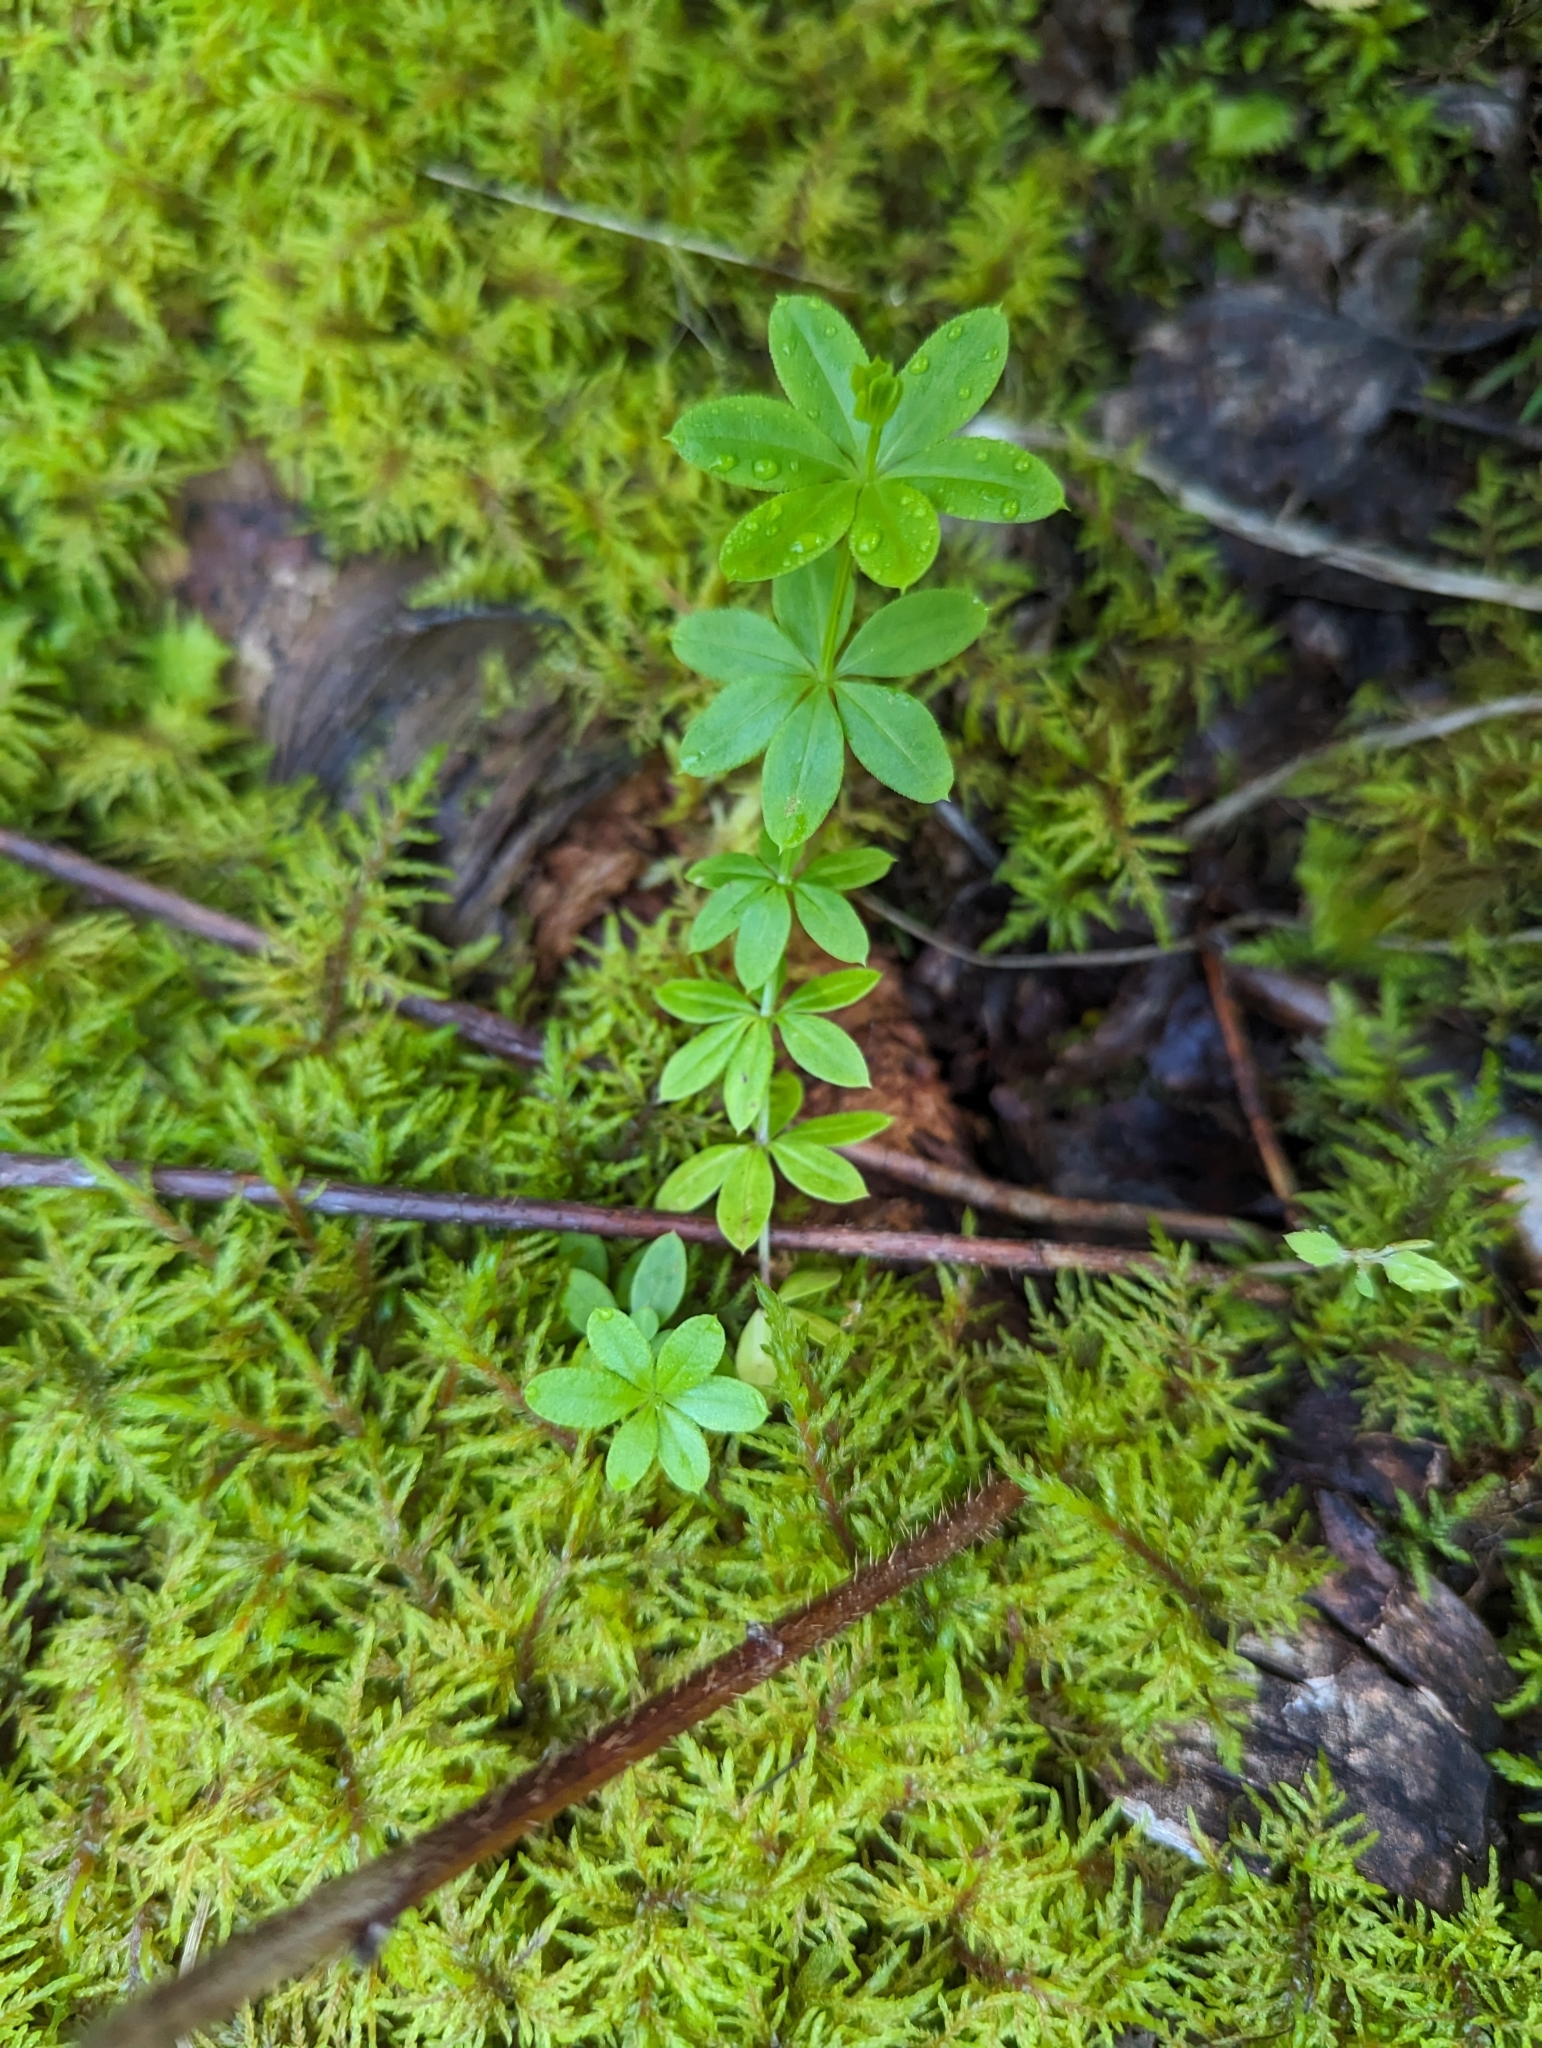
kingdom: Plantae
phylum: Tracheophyta
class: Magnoliopsida
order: Gentianales
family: Rubiaceae
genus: Galium
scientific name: Galium triflorum
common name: Fragrant bedstraw
